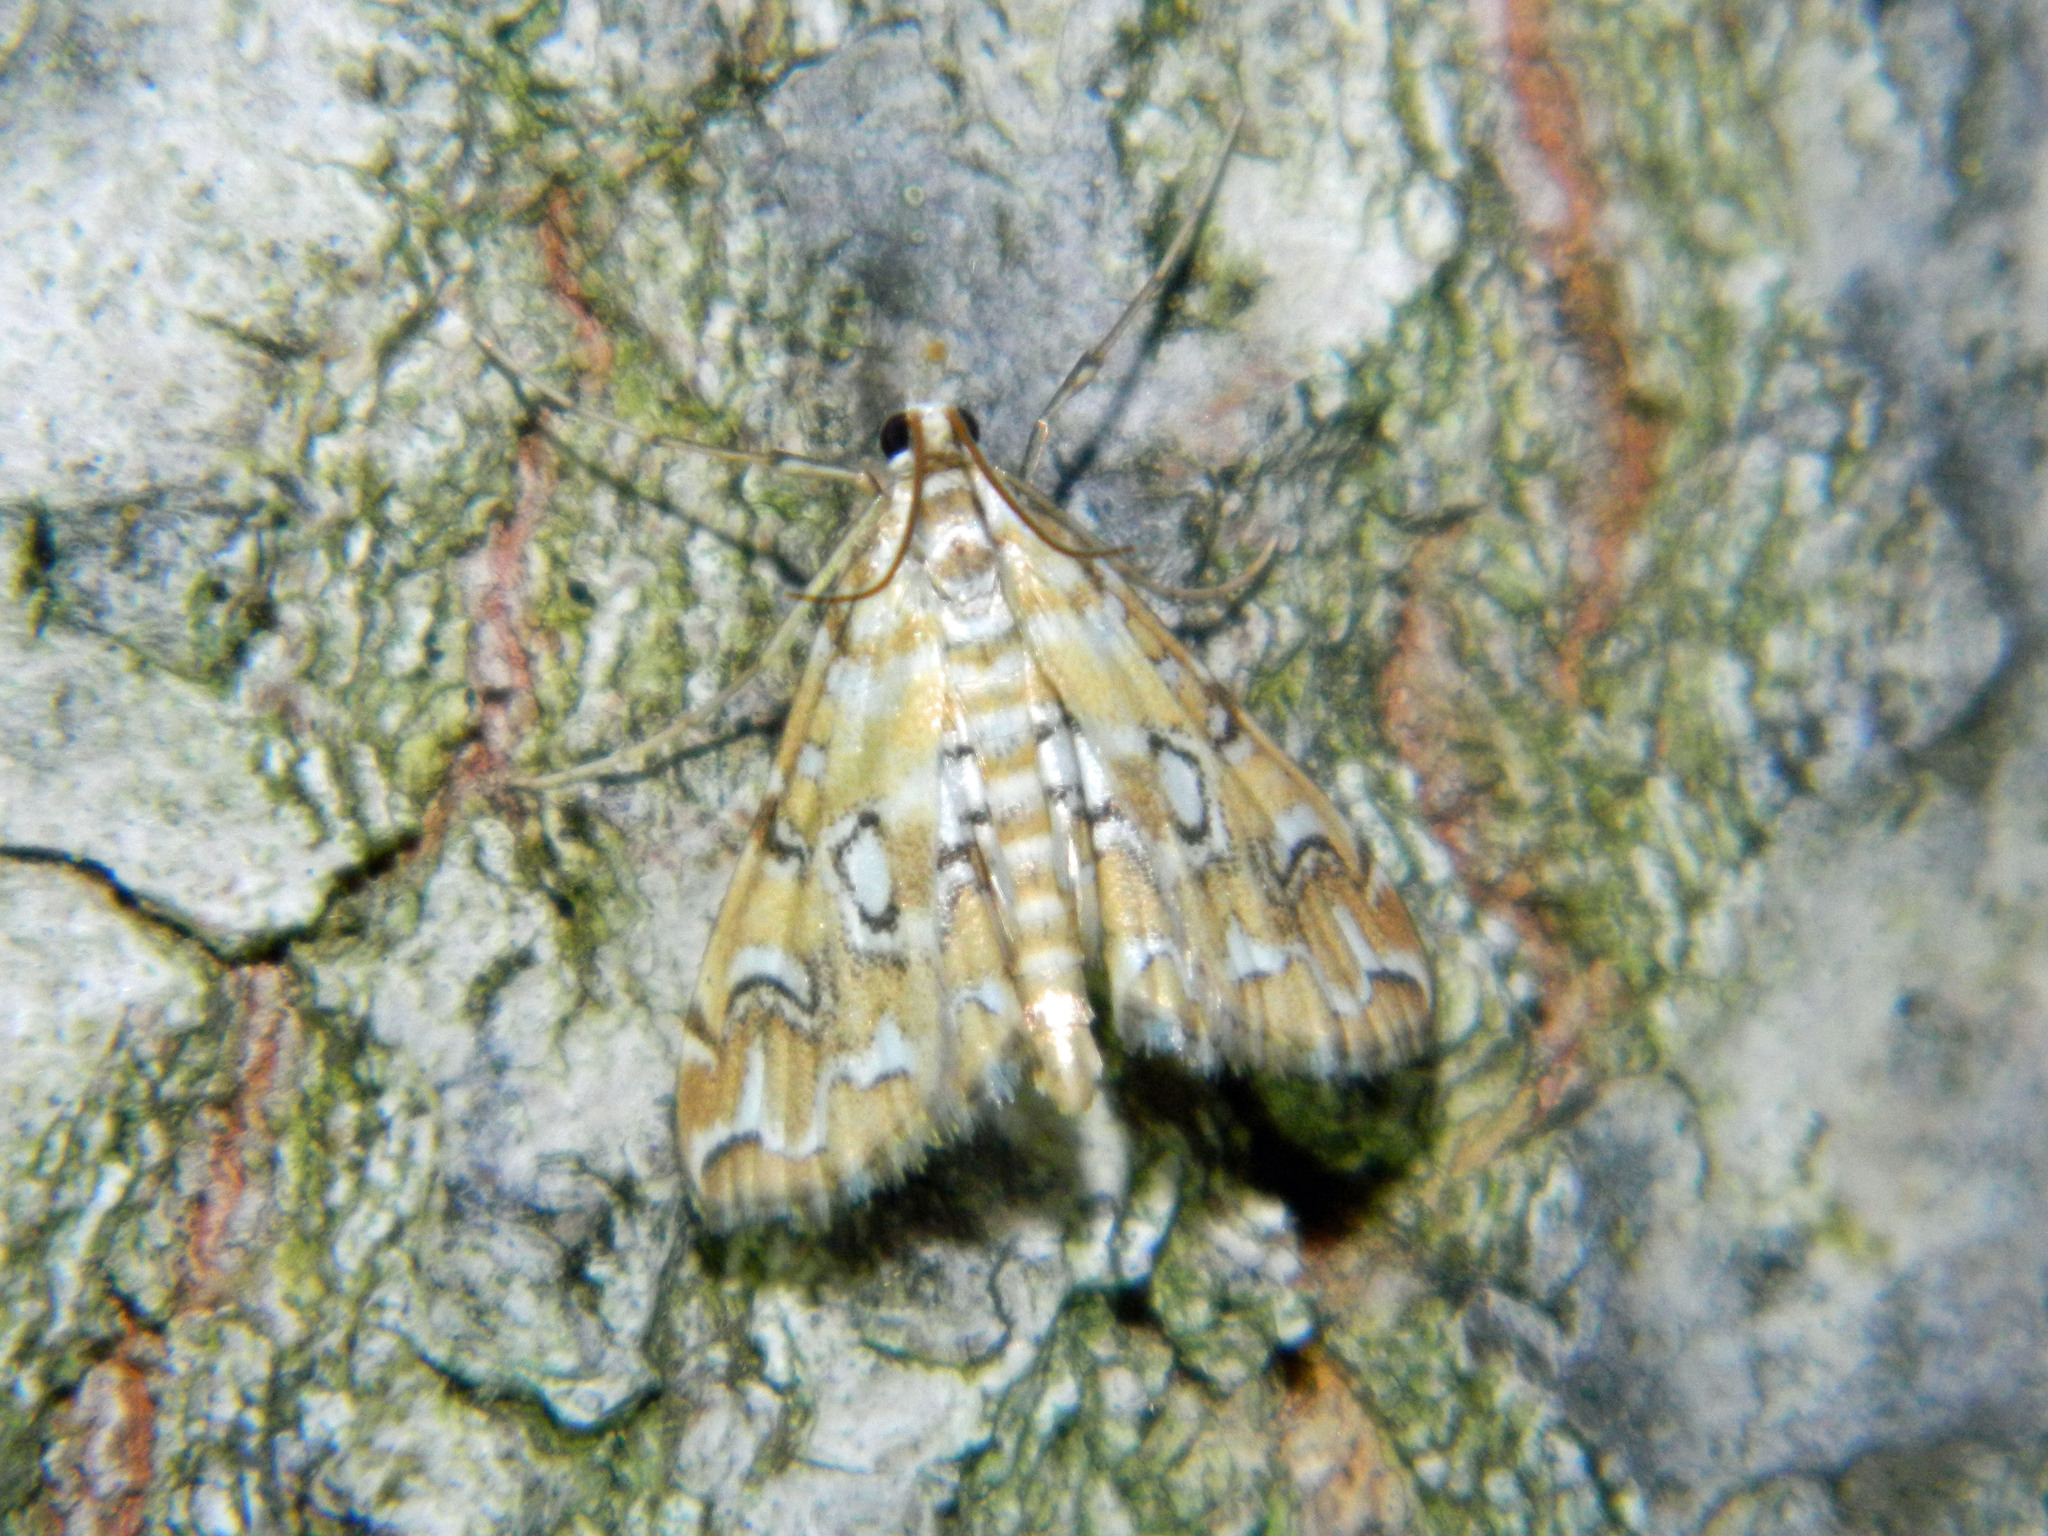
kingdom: Animalia
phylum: Arthropoda
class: Insecta
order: Lepidoptera
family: Crambidae
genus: Elophila
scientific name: Elophila icciusalis
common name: Pondside pyralid moth
